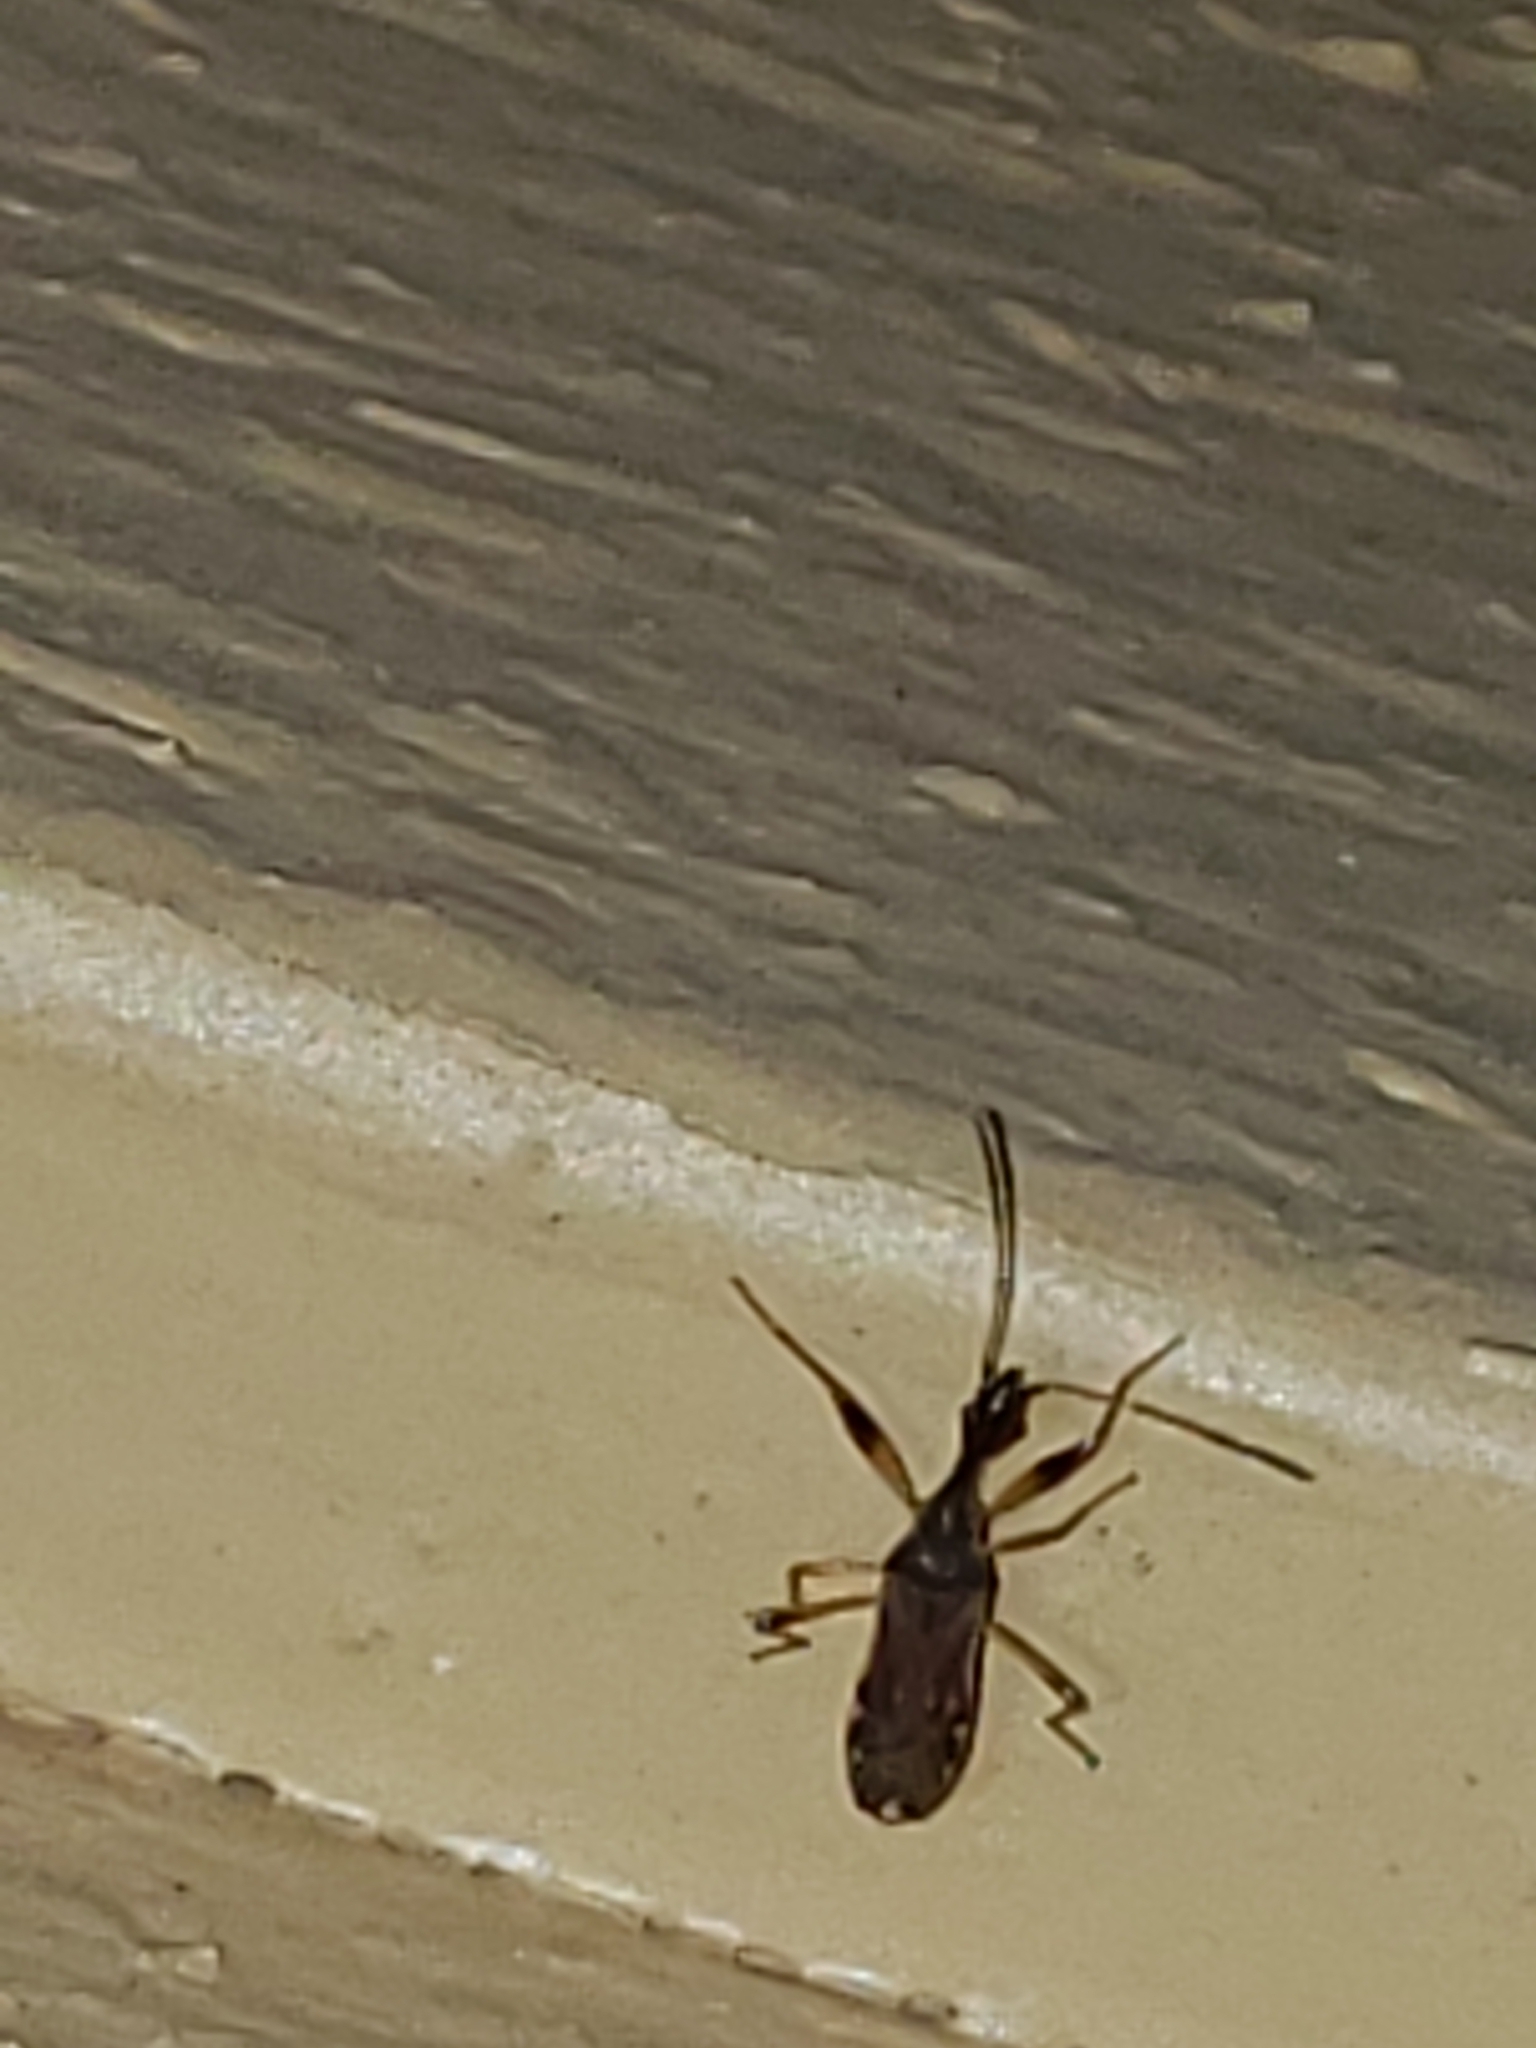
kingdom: Animalia
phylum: Arthropoda
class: Insecta
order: Hemiptera
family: Rhyparochromidae
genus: Myodocha
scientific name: Myodocha serripes
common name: Long-necked seed bug
